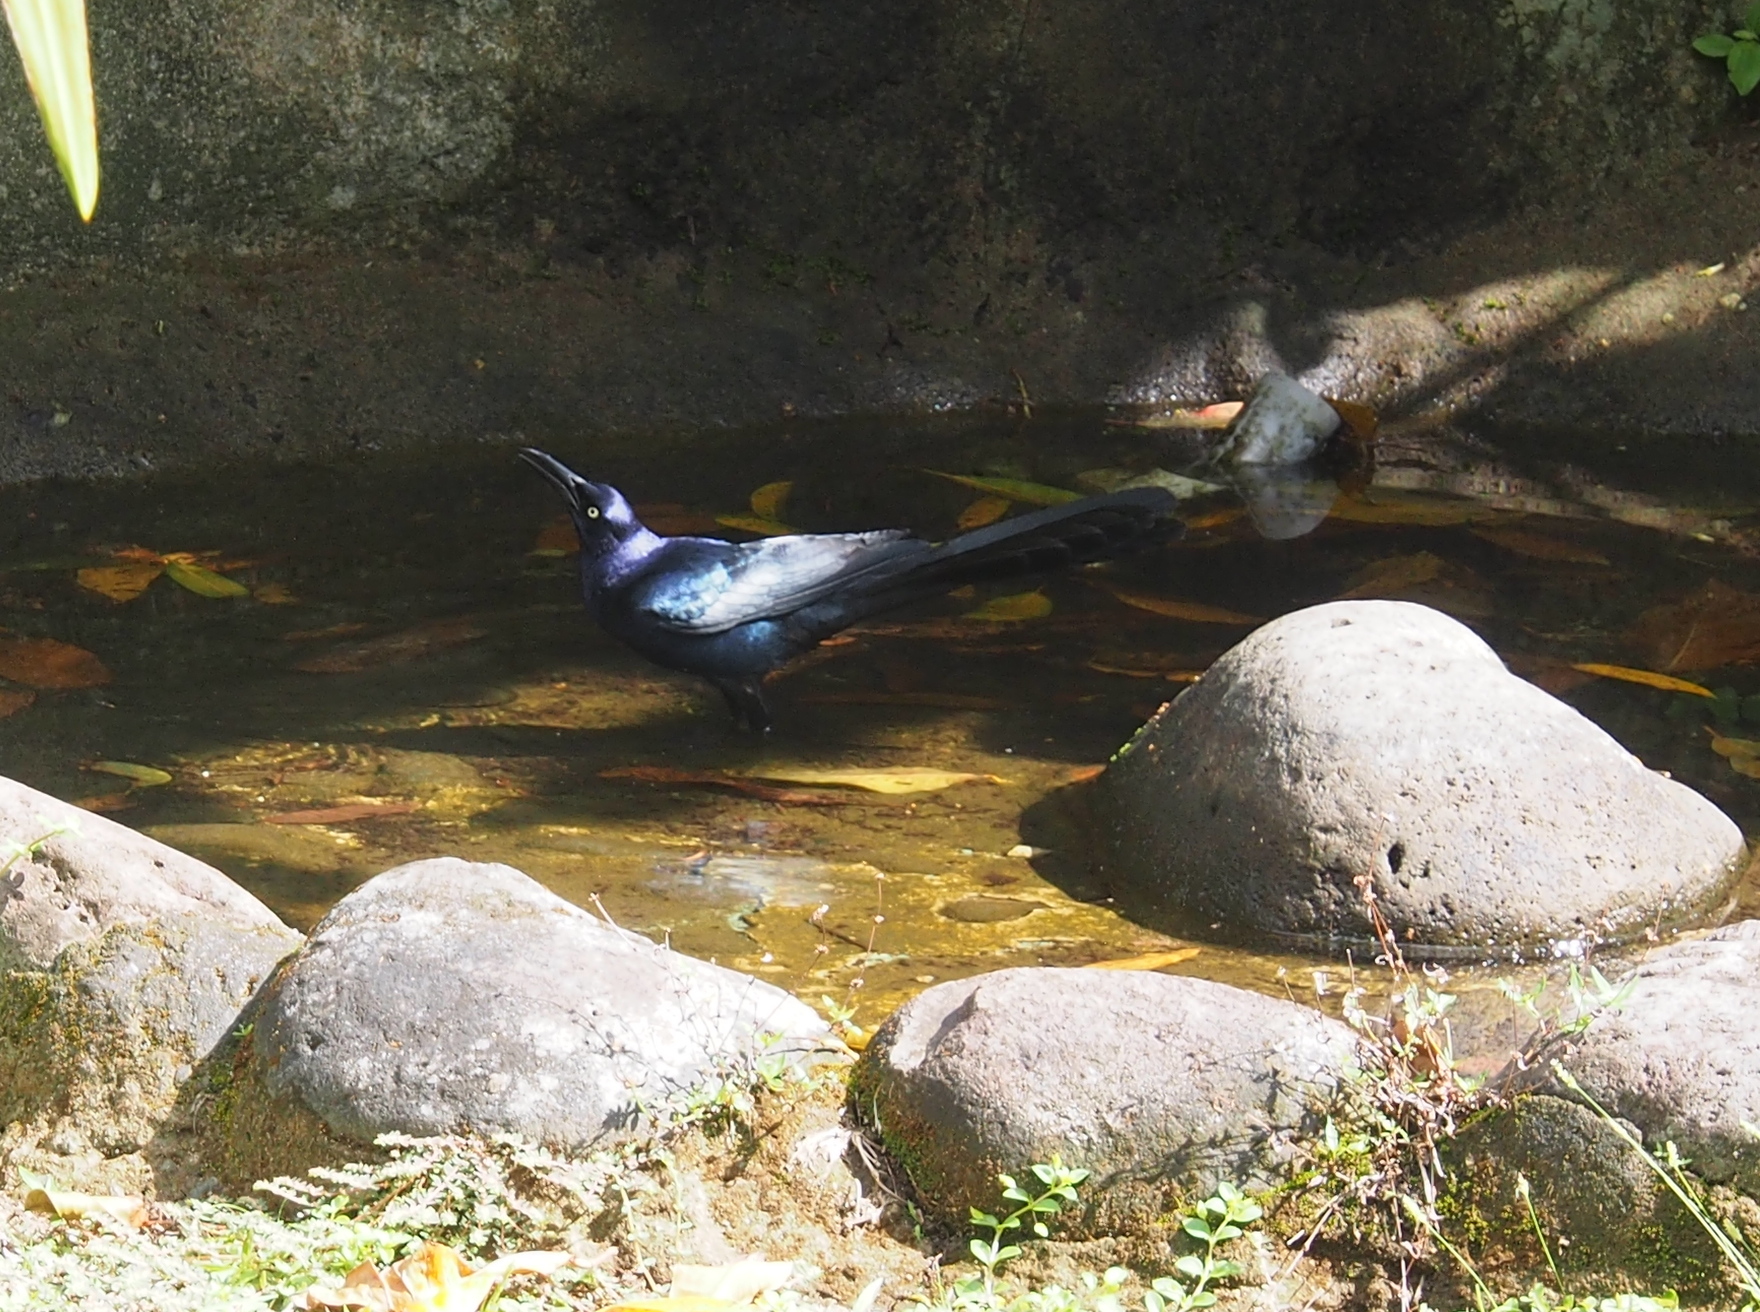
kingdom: Animalia
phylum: Chordata
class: Aves
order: Passeriformes
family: Icteridae
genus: Quiscalus
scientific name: Quiscalus mexicanus
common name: Great-tailed grackle
